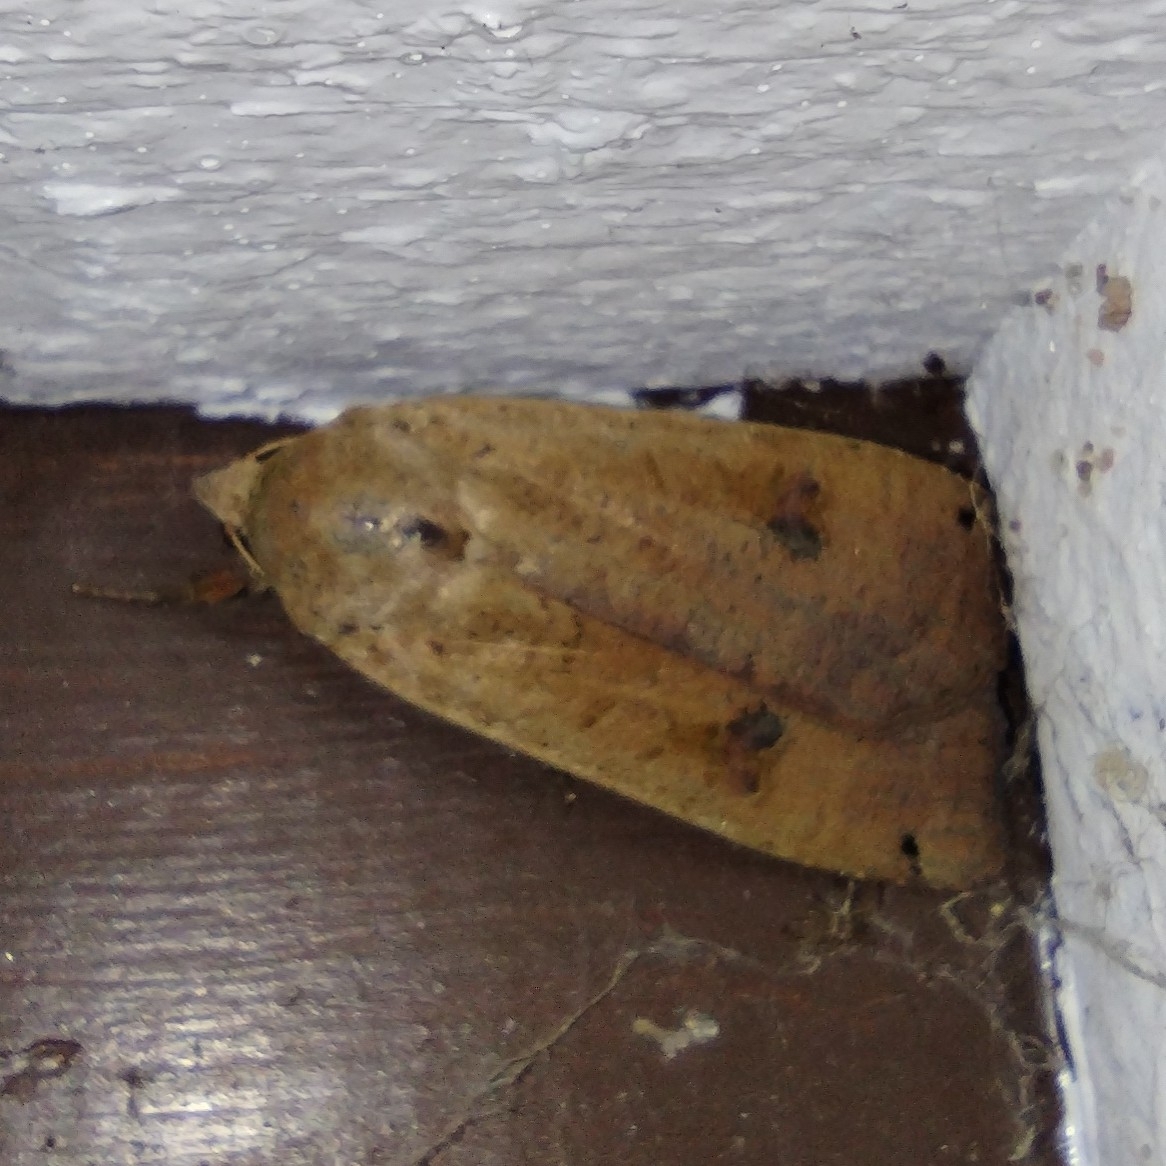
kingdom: Animalia
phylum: Arthropoda
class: Insecta
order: Lepidoptera
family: Noctuidae
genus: Noctua
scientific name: Noctua pronuba
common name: Large yellow underwing
